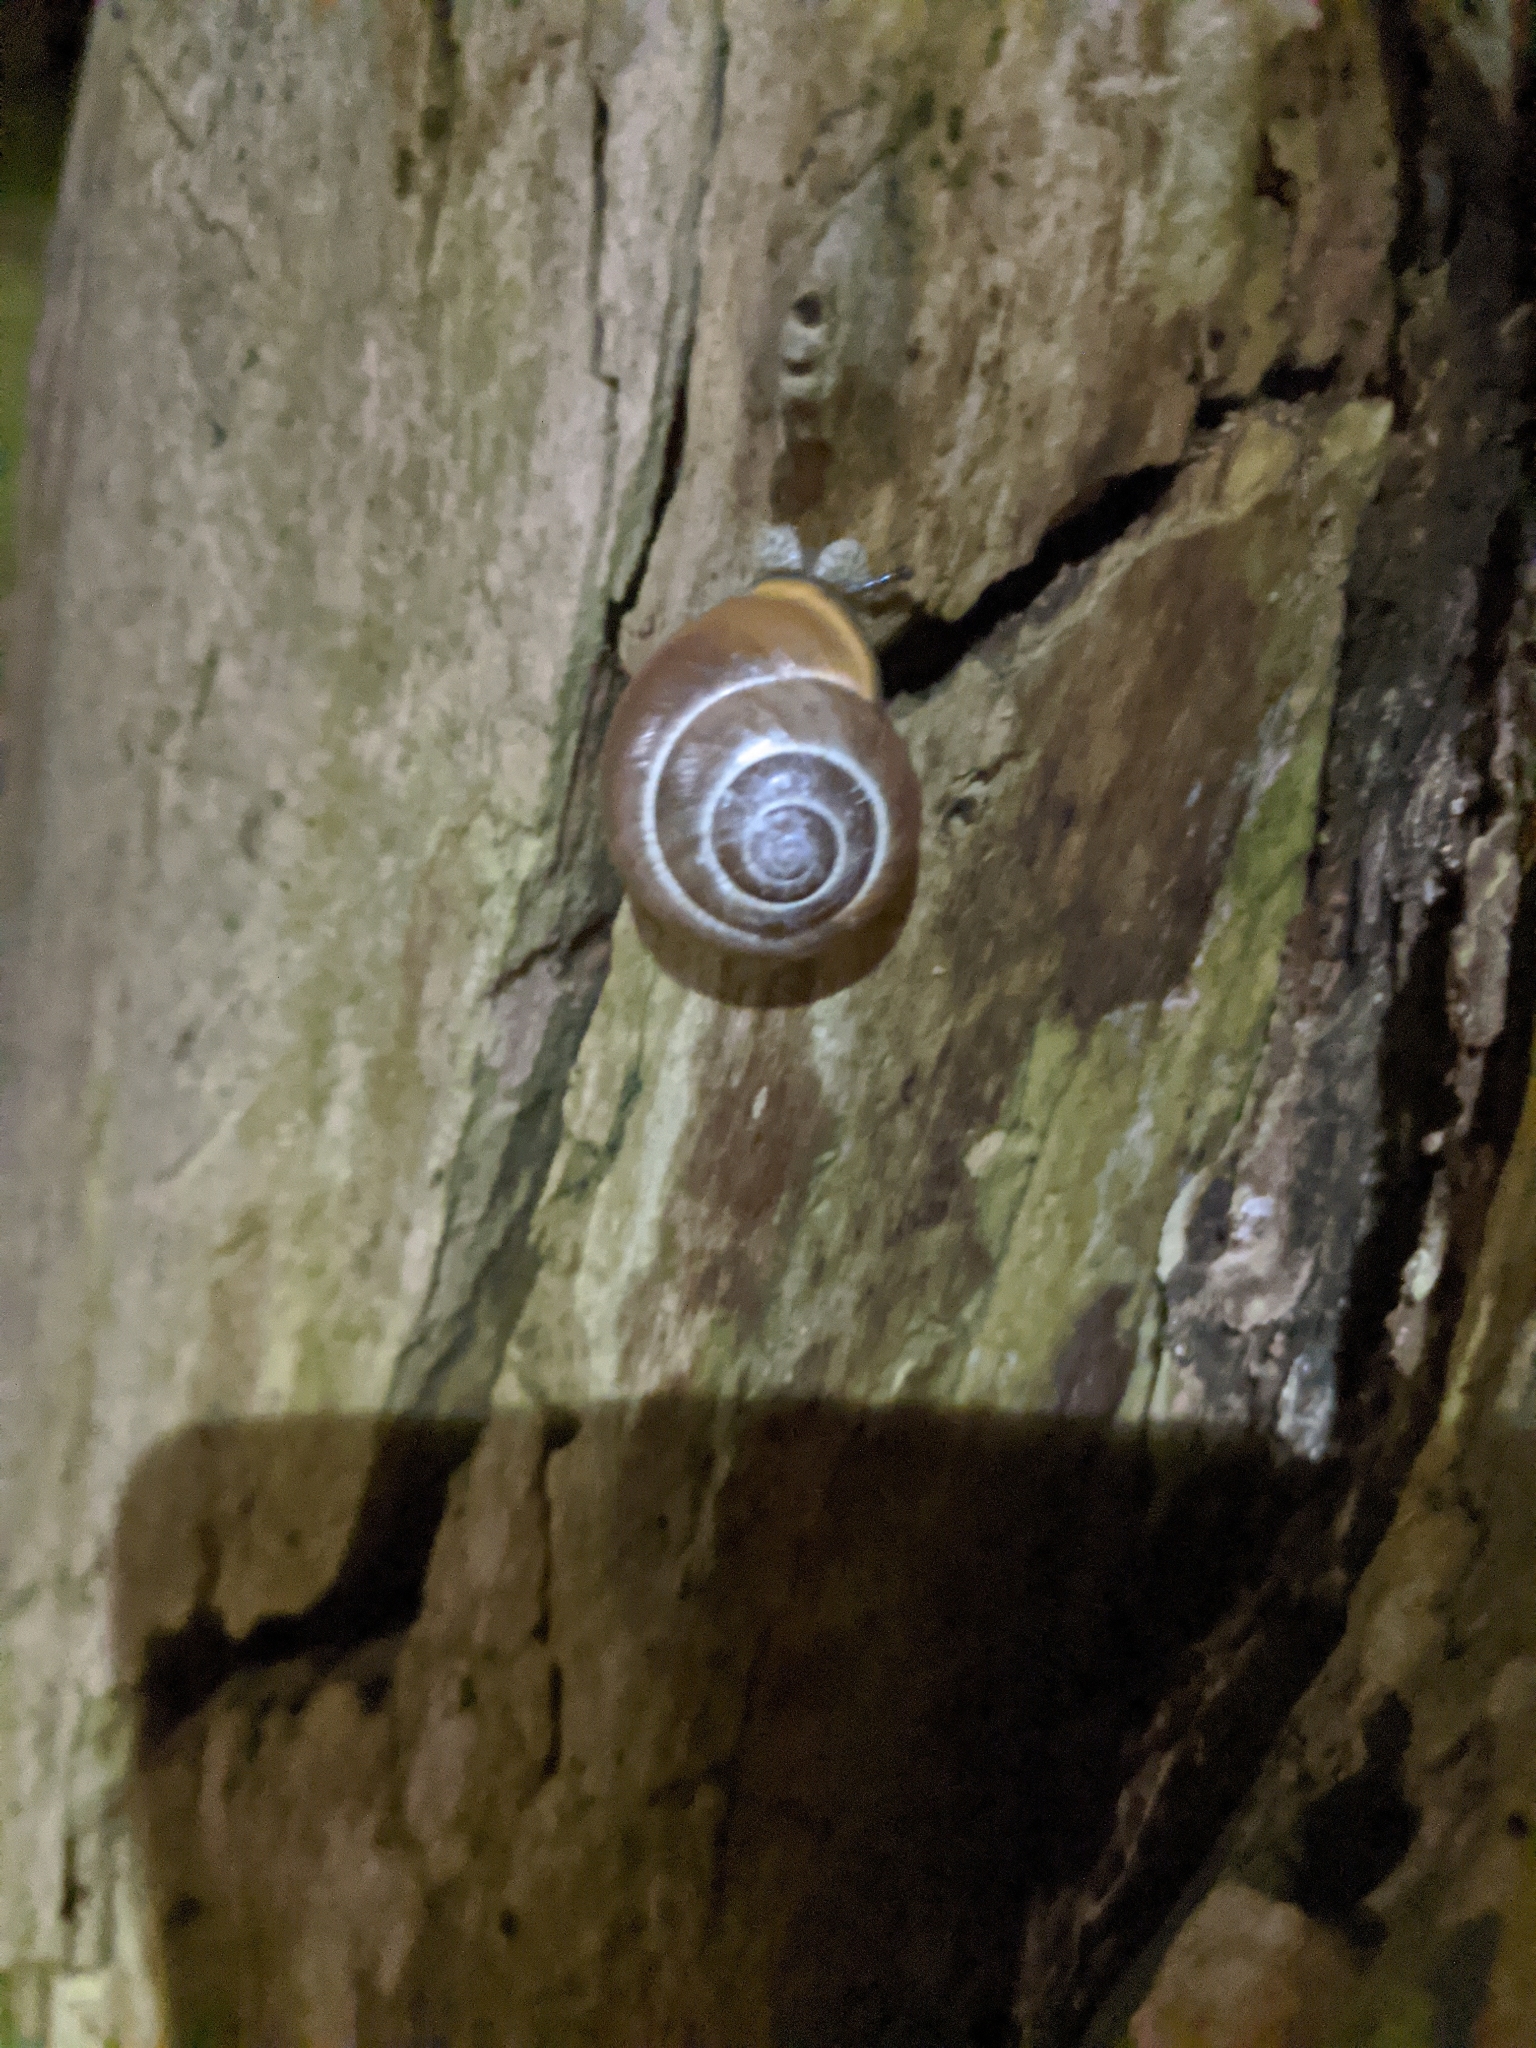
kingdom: Animalia
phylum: Mollusca
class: Gastropoda
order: Stylommatophora
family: Helicidae
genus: Cepaea
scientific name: Cepaea nemoralis
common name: Grovesnail
